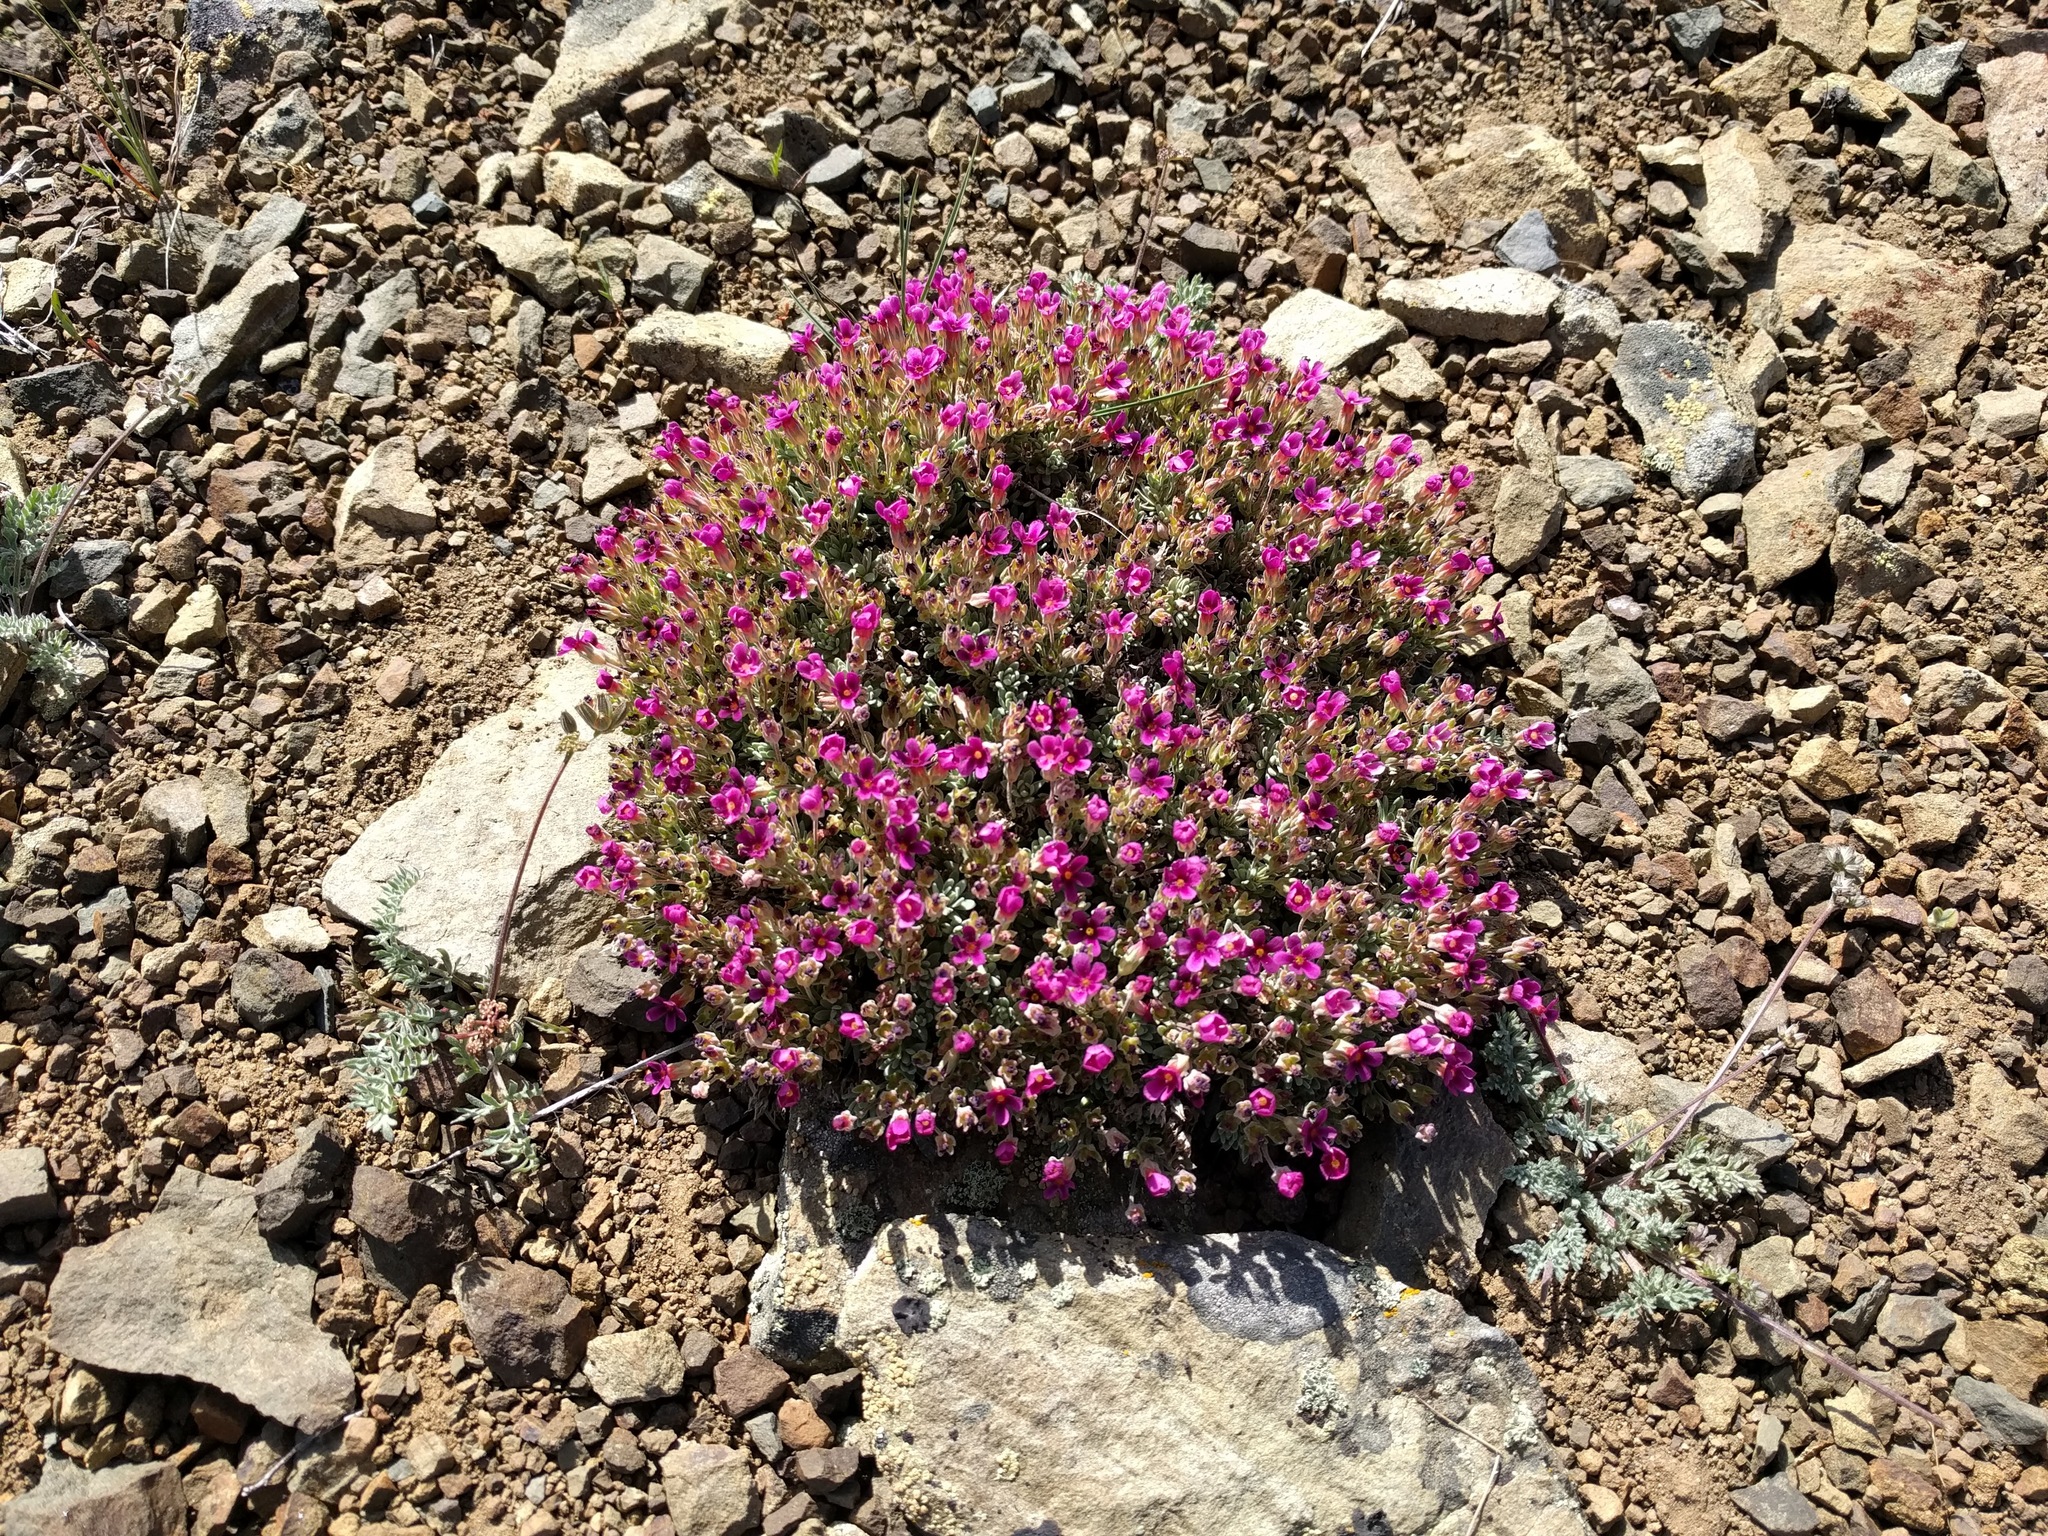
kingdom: Plantae
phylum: Tracheophyta
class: Magnoliopsida
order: Ericales
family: Primulaceae
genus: Androsace
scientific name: Androsace nivalis
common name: Snow dwarf-primrose
